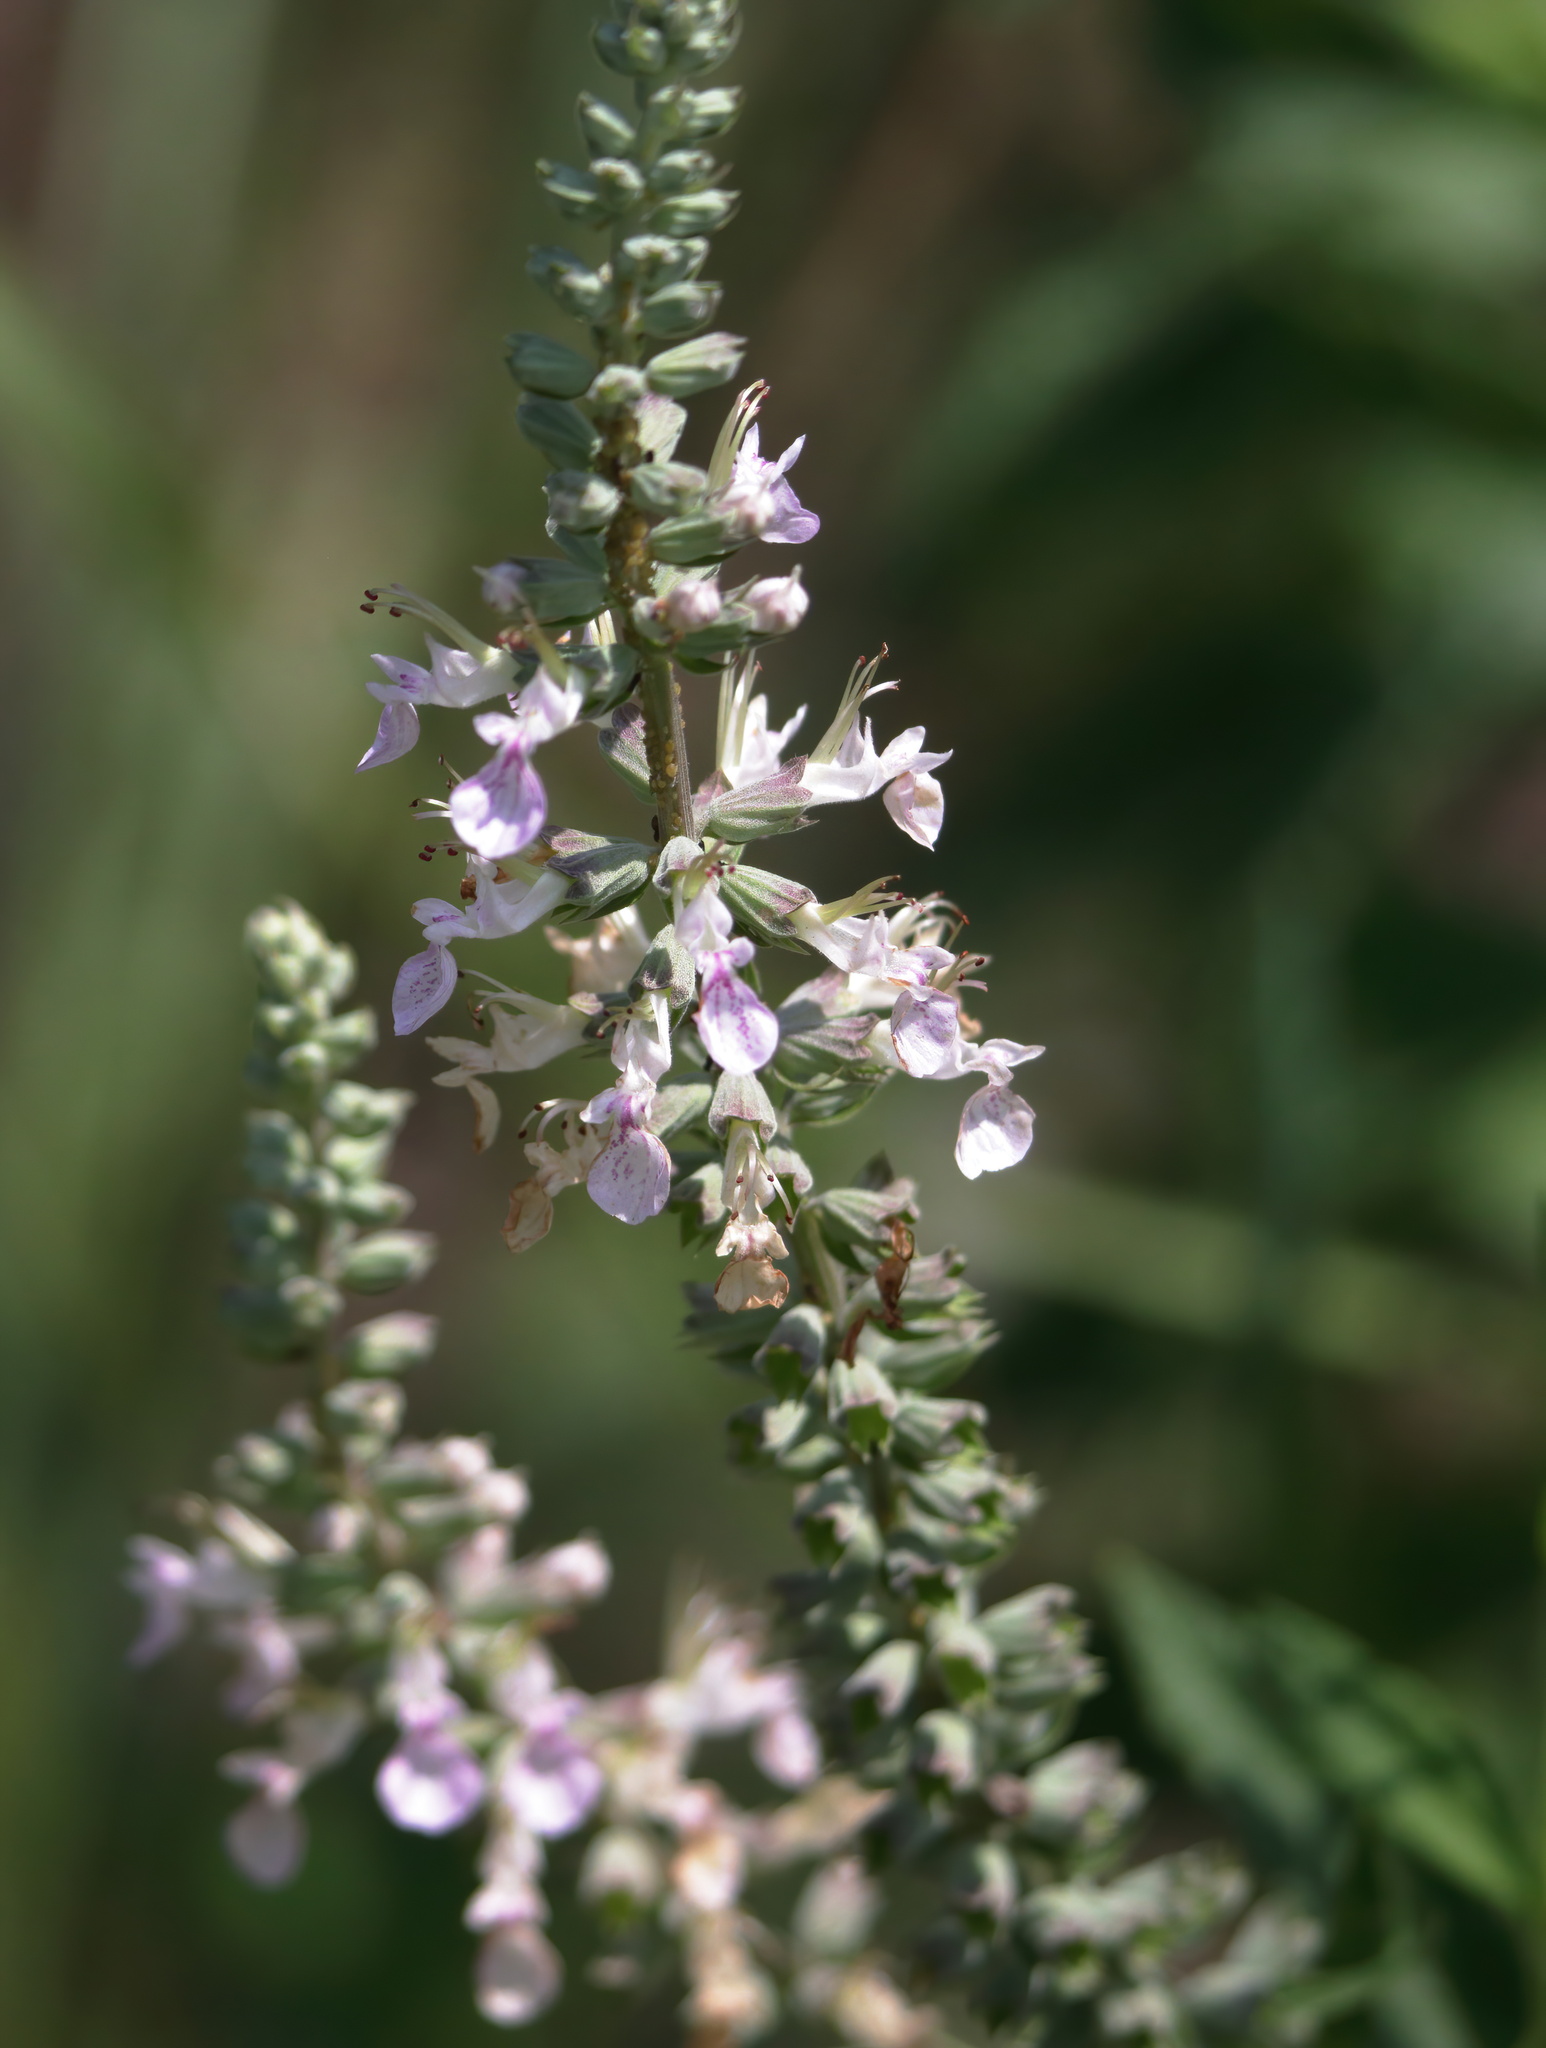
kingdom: Plantae
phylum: Tracheophyta
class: Magnoliopsida
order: Lamiales
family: Lamiaceae
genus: Teucrium
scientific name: Teucrium canadense
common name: American germander
